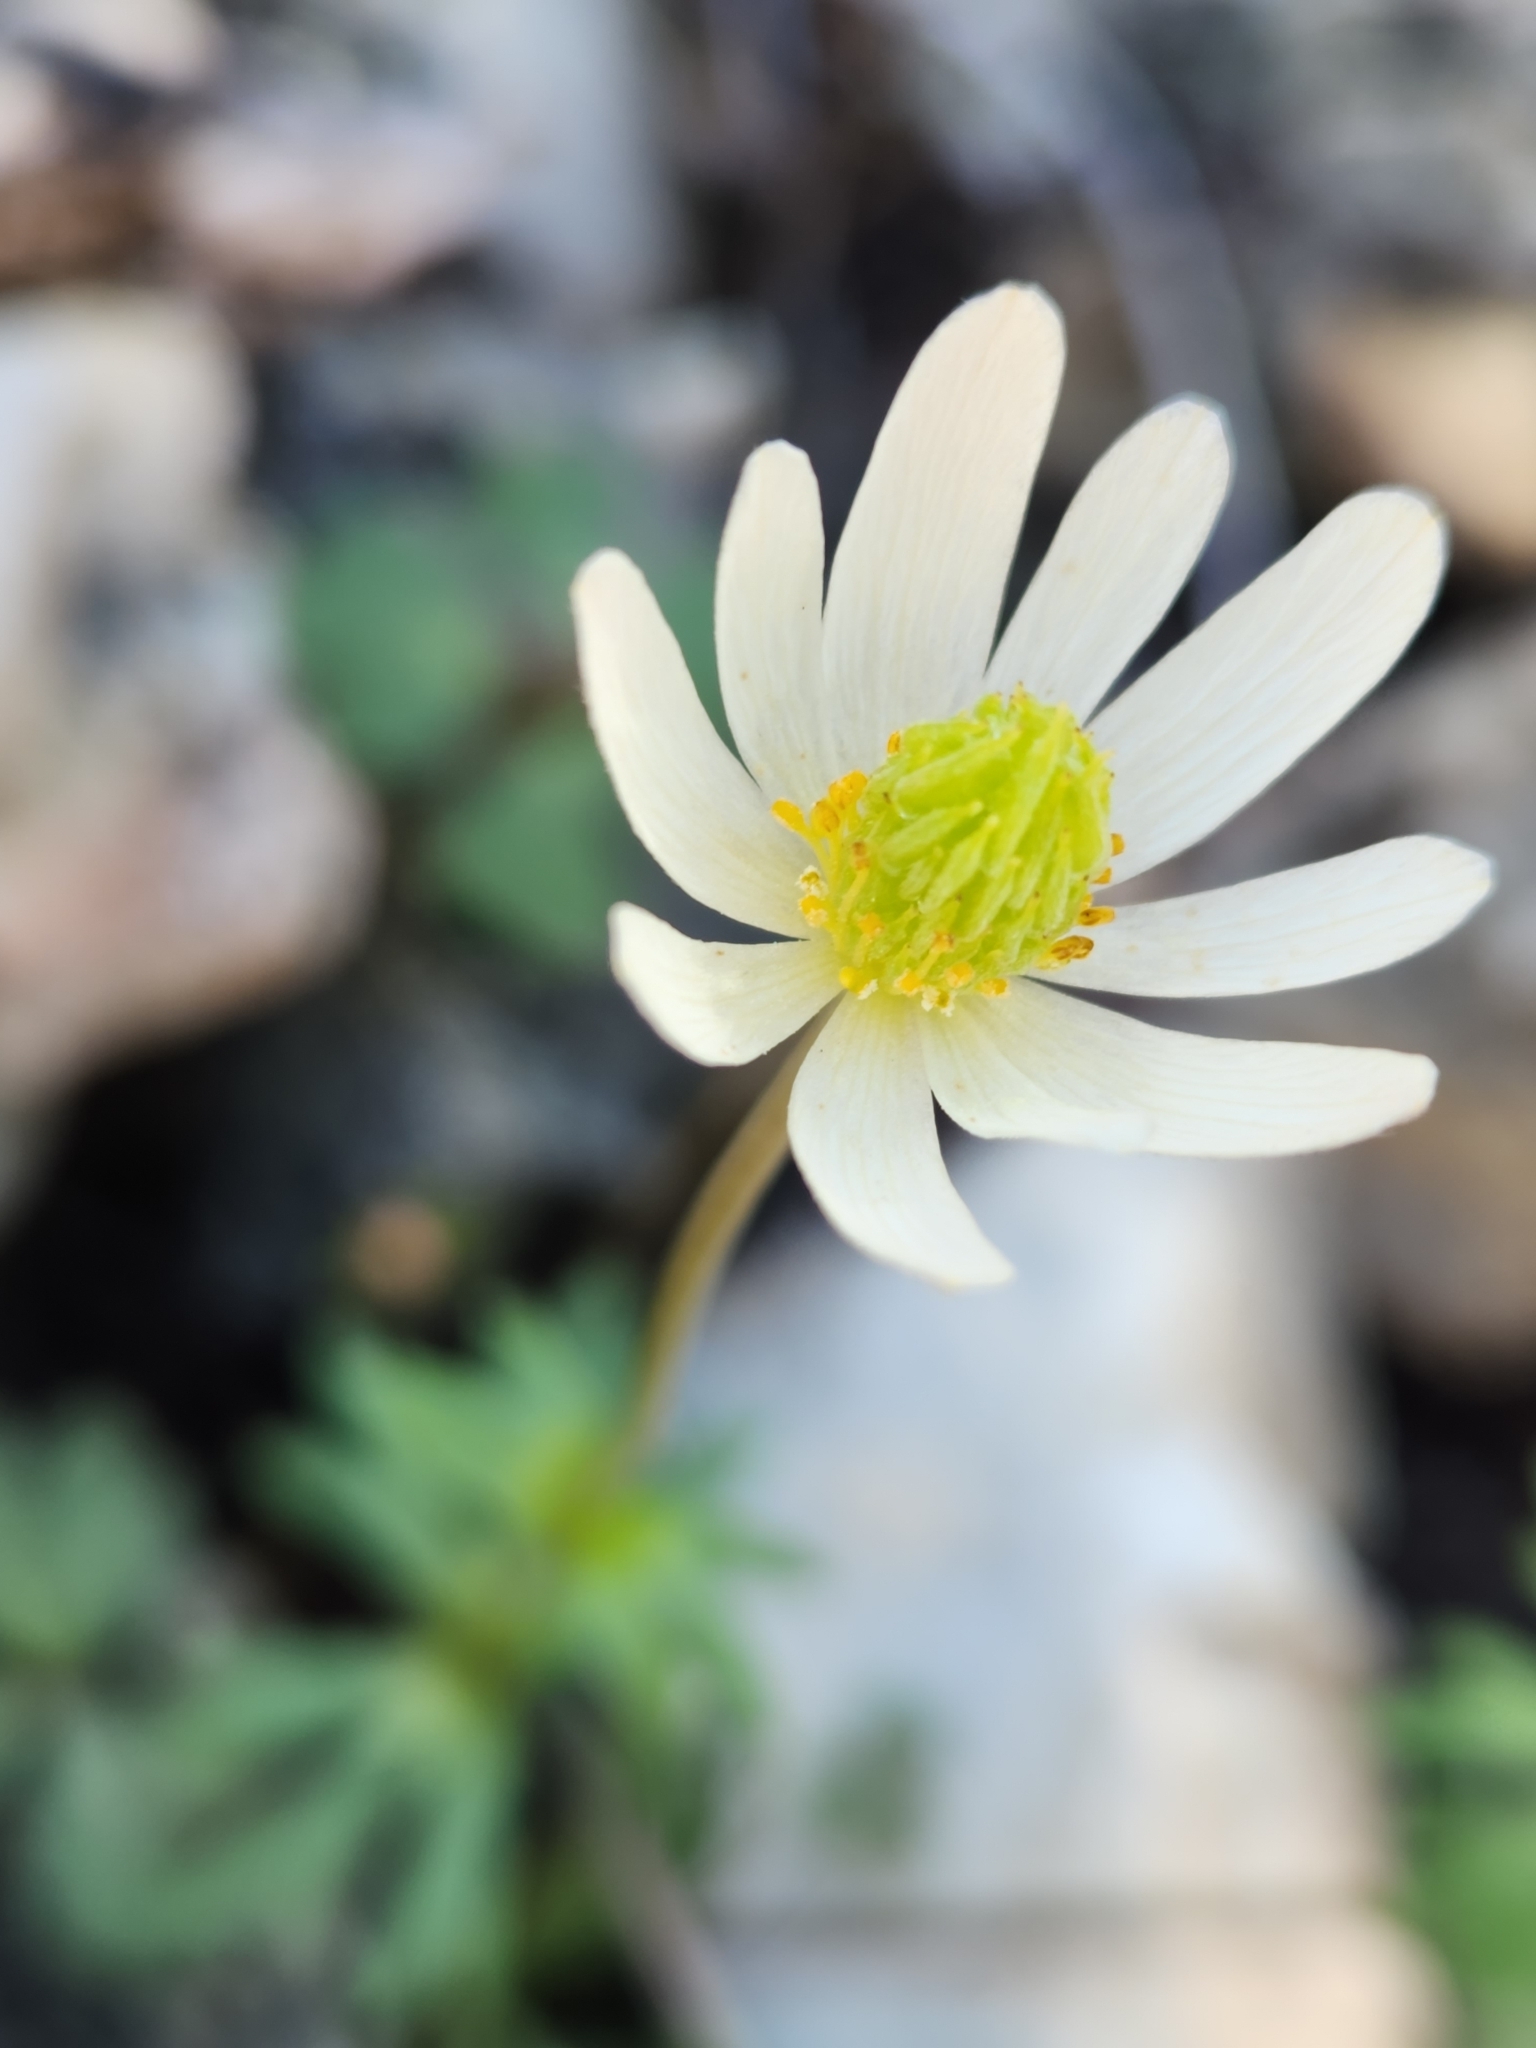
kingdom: Plantae
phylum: Tracheophyta
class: Magnoliopsida
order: Ranunculales
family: Ranunculaceae
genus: Anemone
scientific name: Anemone edwardsiana
